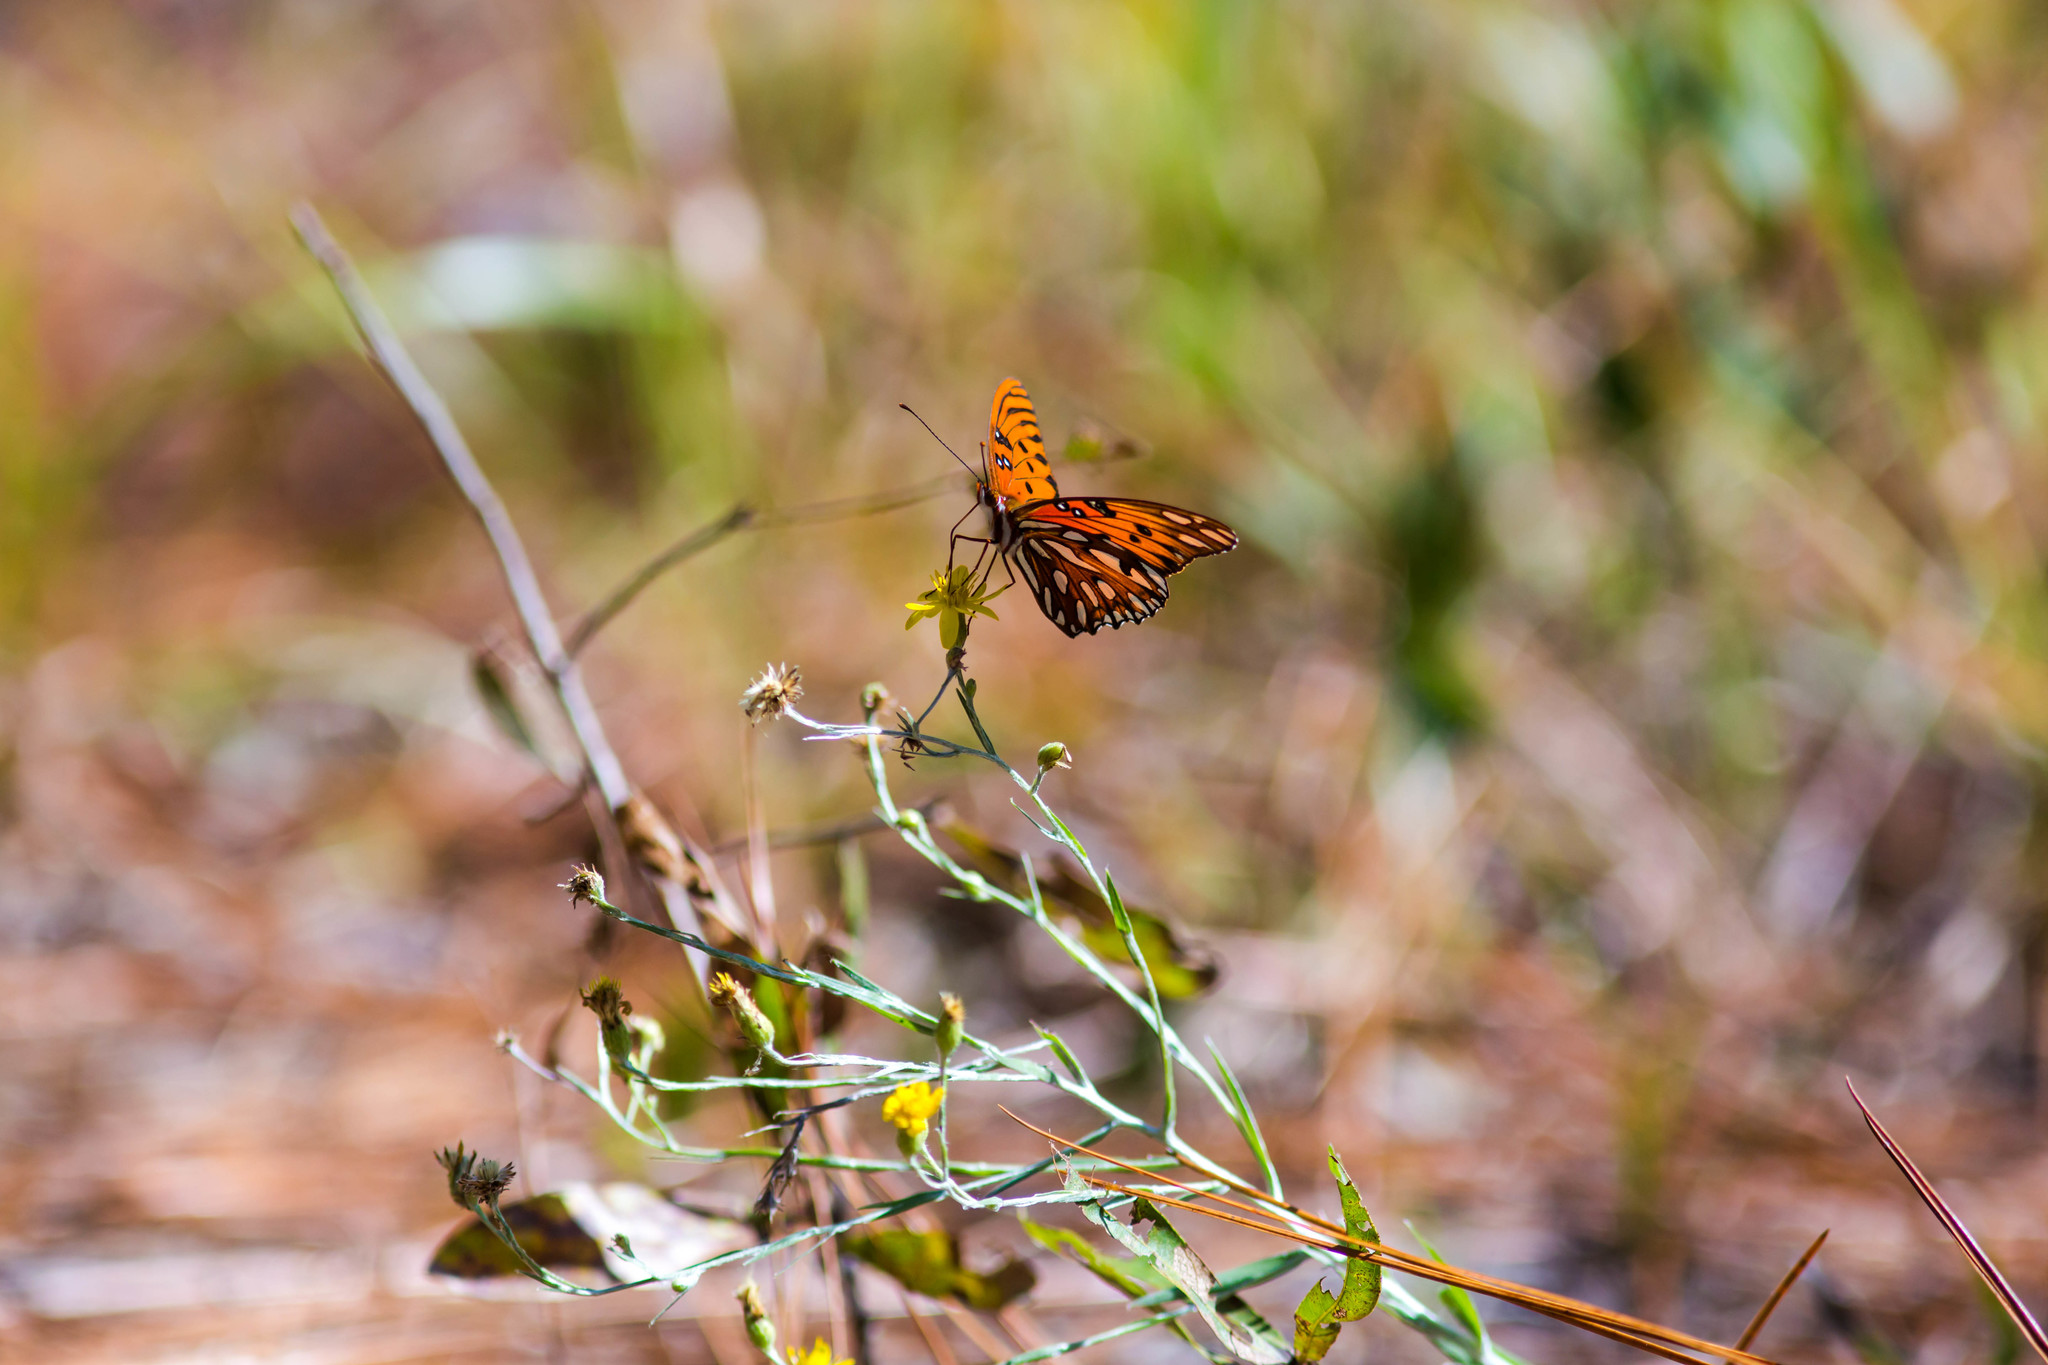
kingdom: Animalia
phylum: Arthropoda
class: Insecta
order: Lepidoptera
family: Nymphalidae
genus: Dione
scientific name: Dione vanillae
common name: Gulf fritillary
